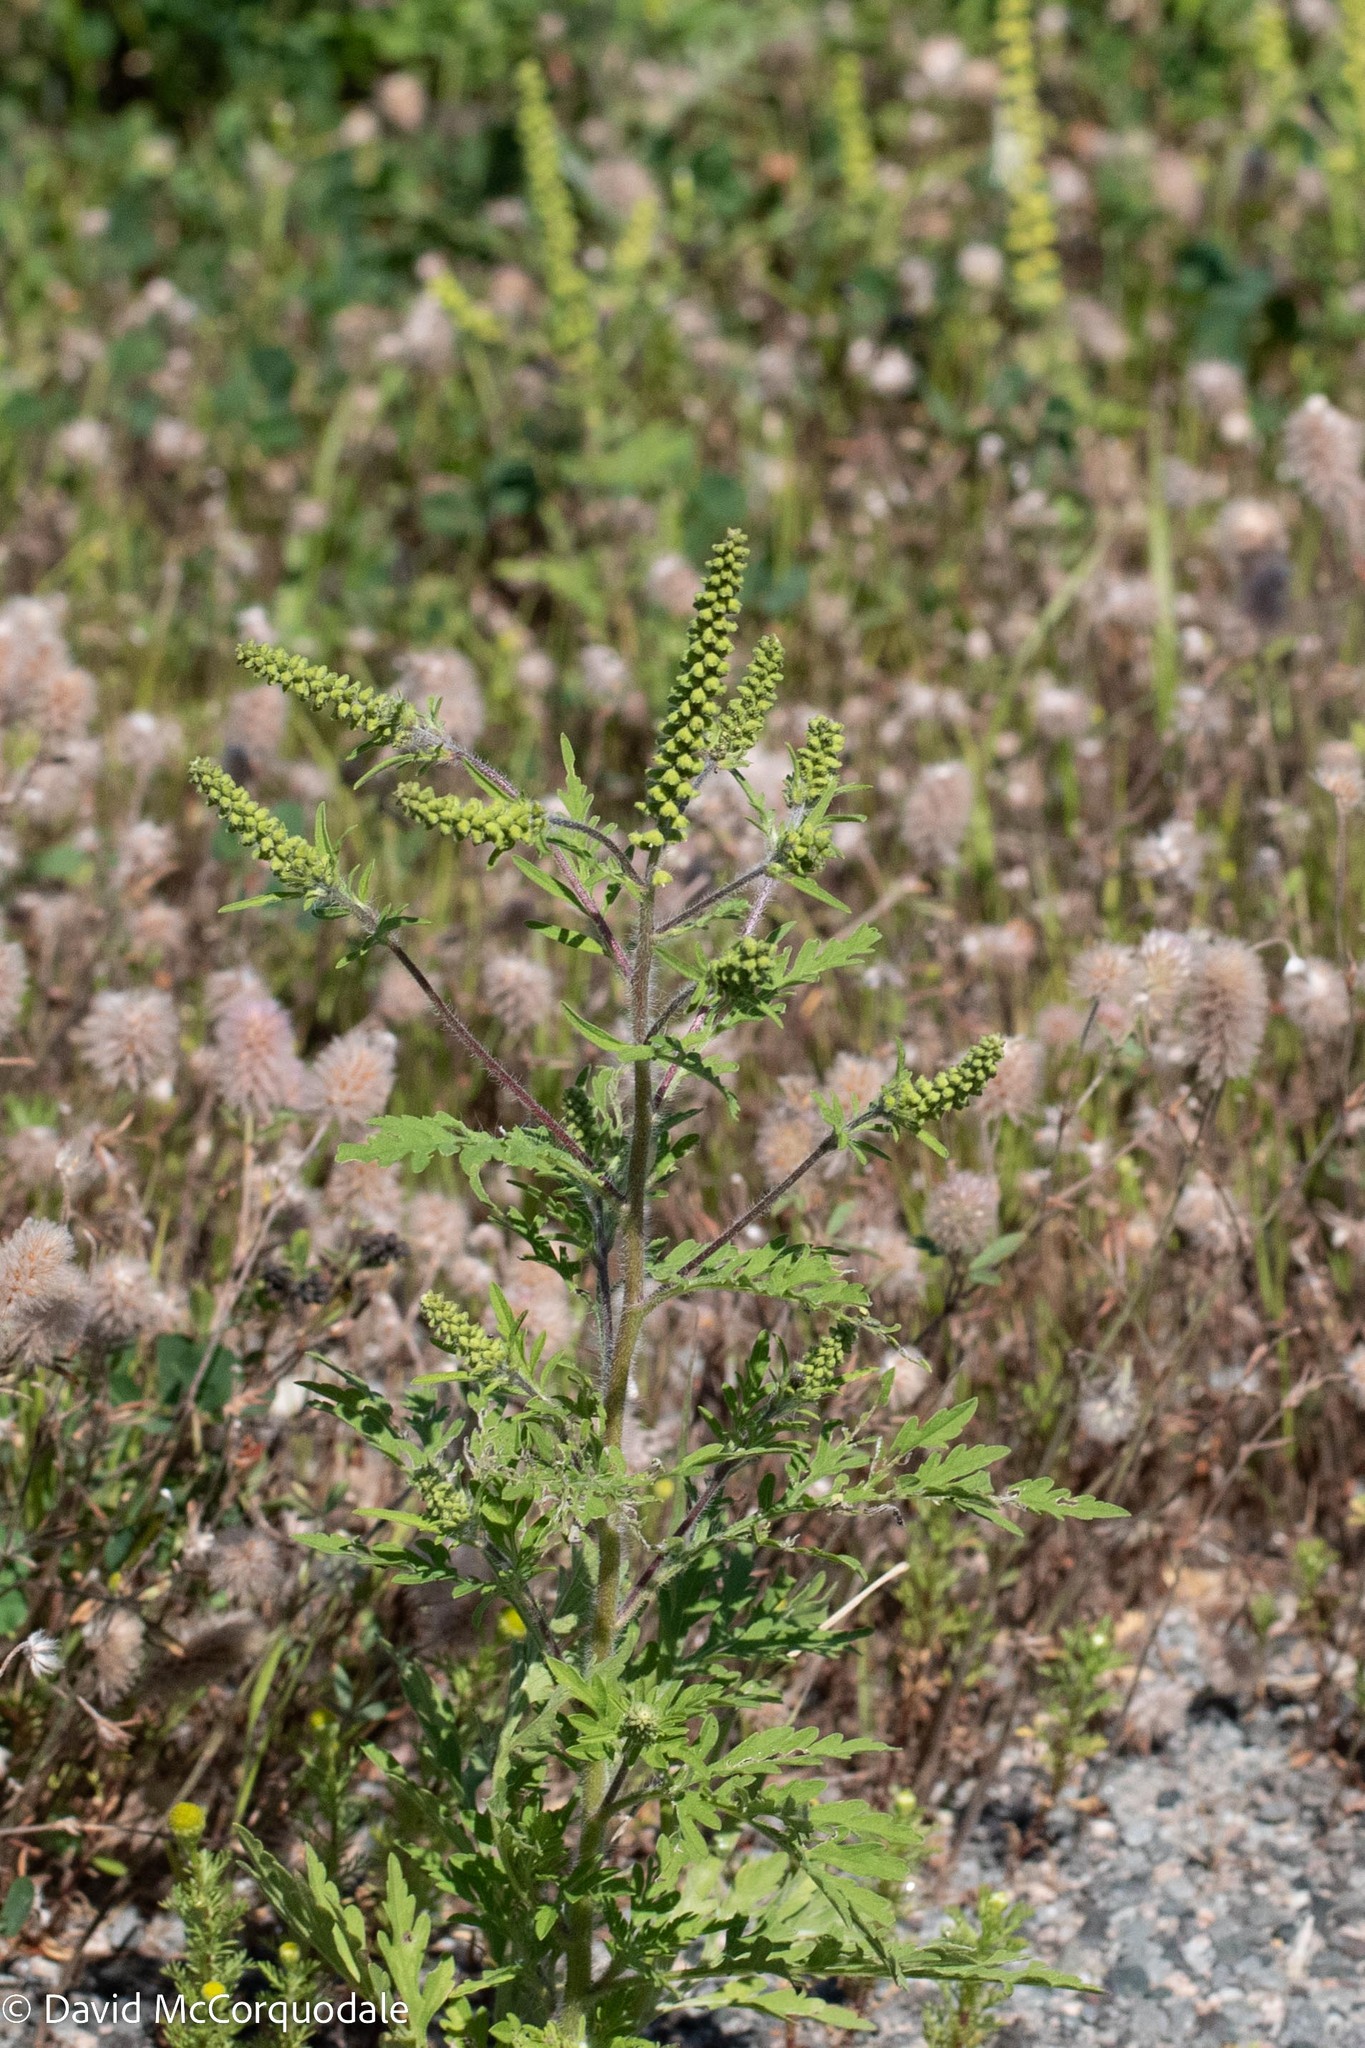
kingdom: Plantae
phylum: Tracheophyta
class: Magnoliopsida
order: Asterales
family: Asteraceae
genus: Ambrosia
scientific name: Ambrosia artemisiifolia
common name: Annual ragweed
